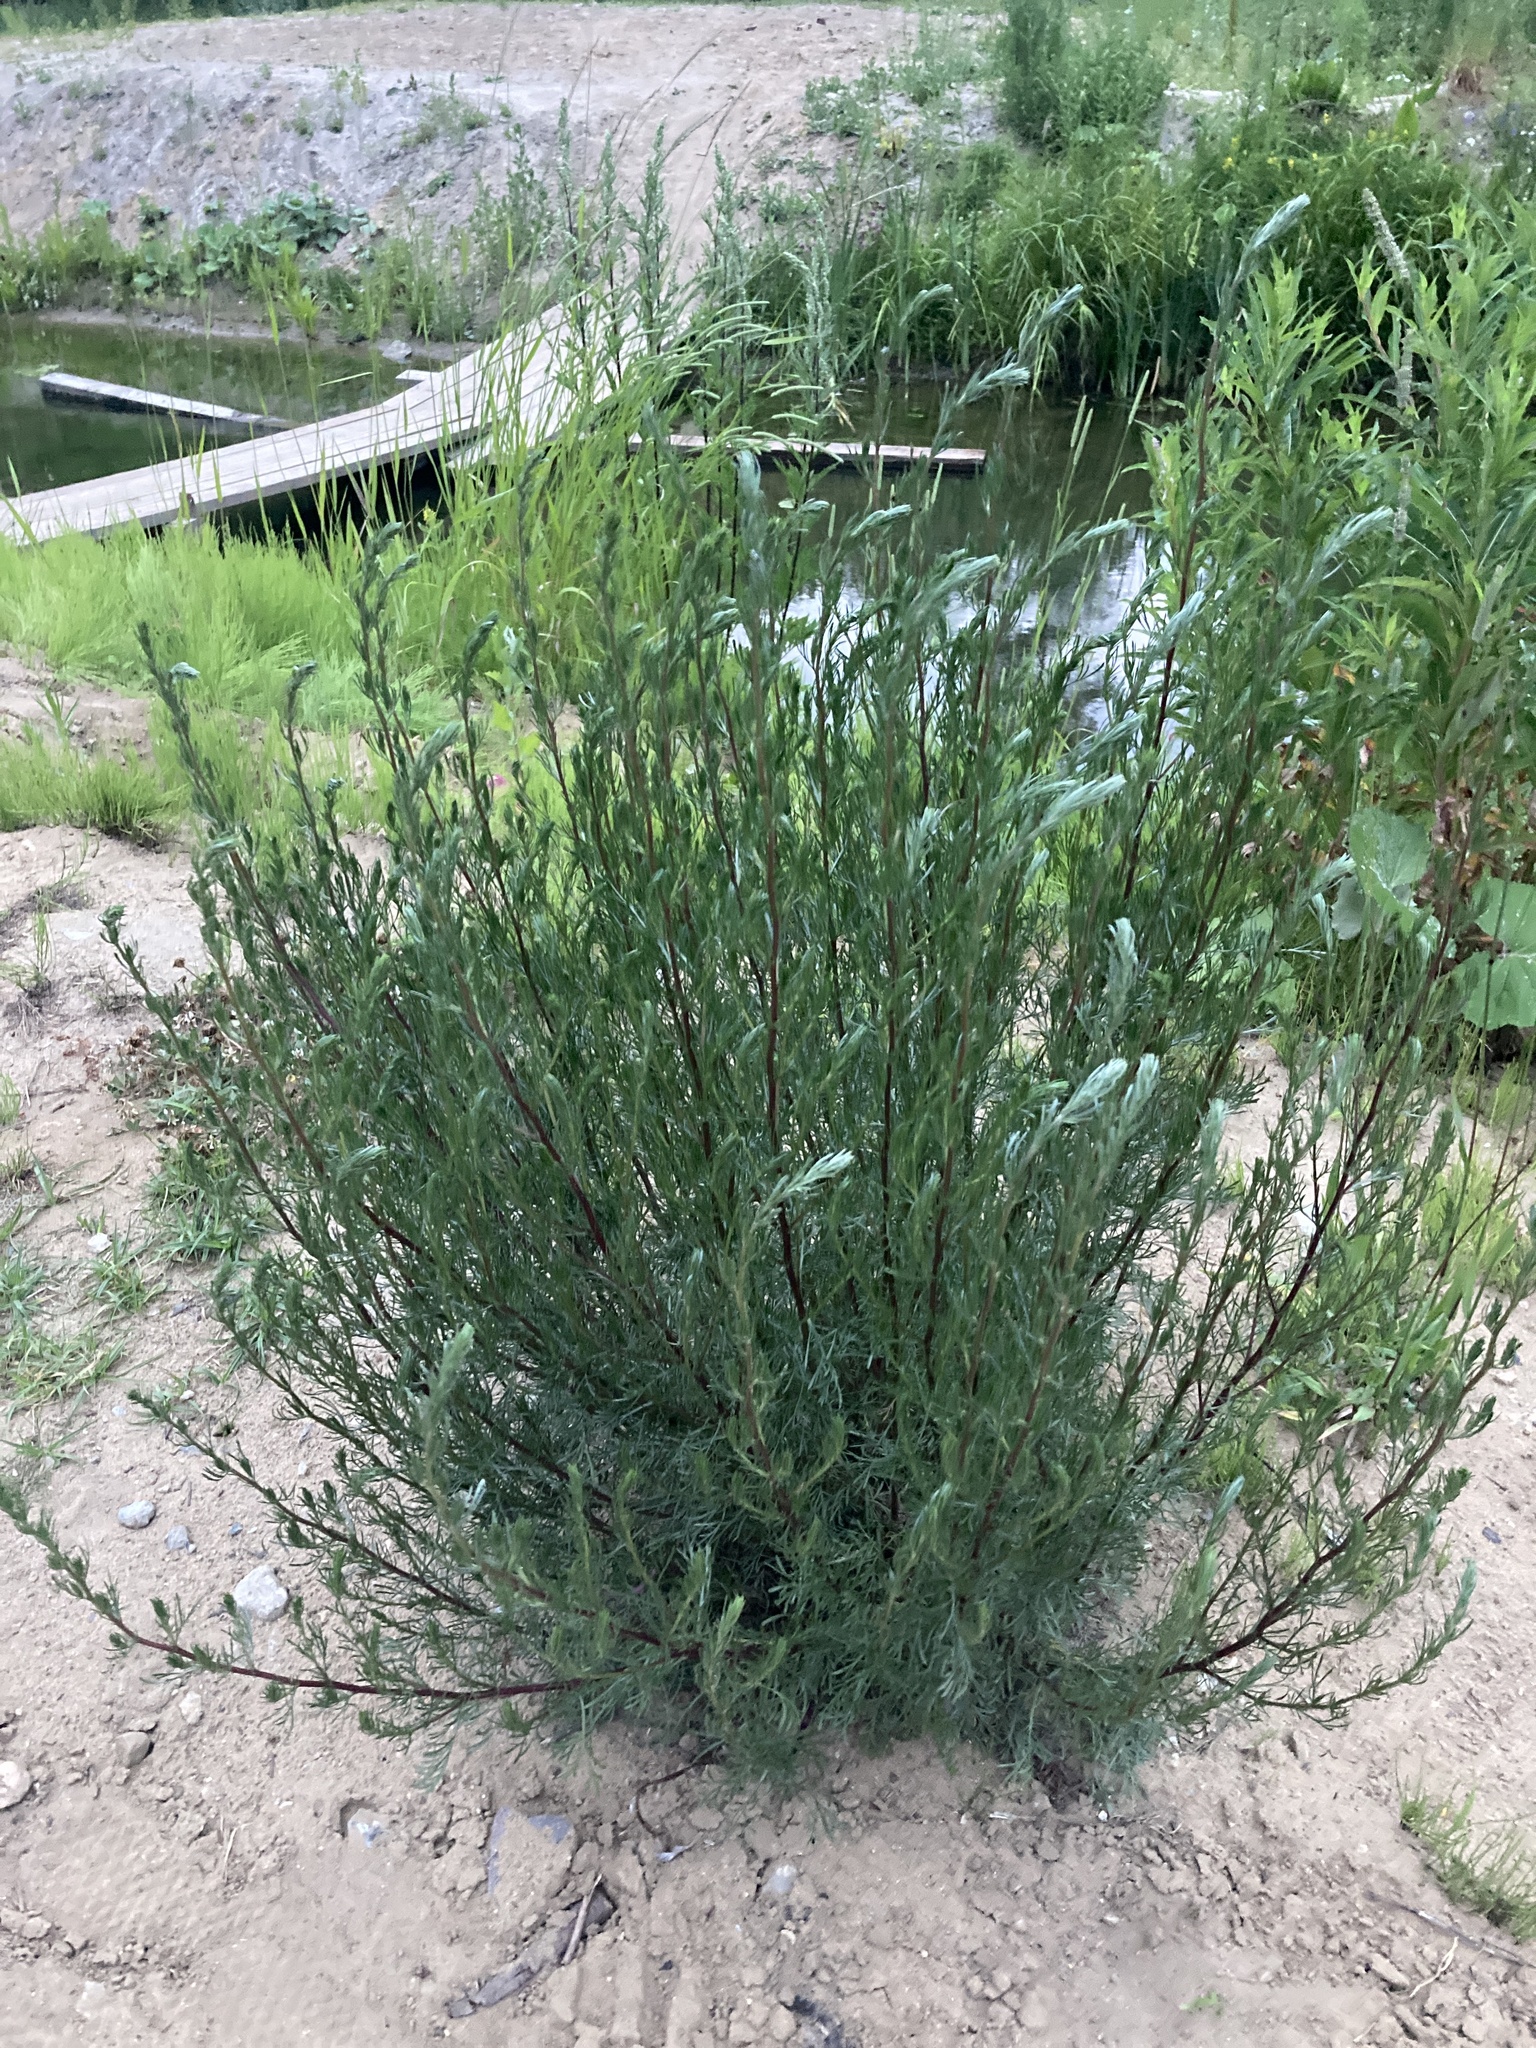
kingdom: Plantae
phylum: Tracheophyta
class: Magnoliopsida
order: Asterales
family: Asteraceae
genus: Artemisia
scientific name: Artemisia campestris
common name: Field wormwood
